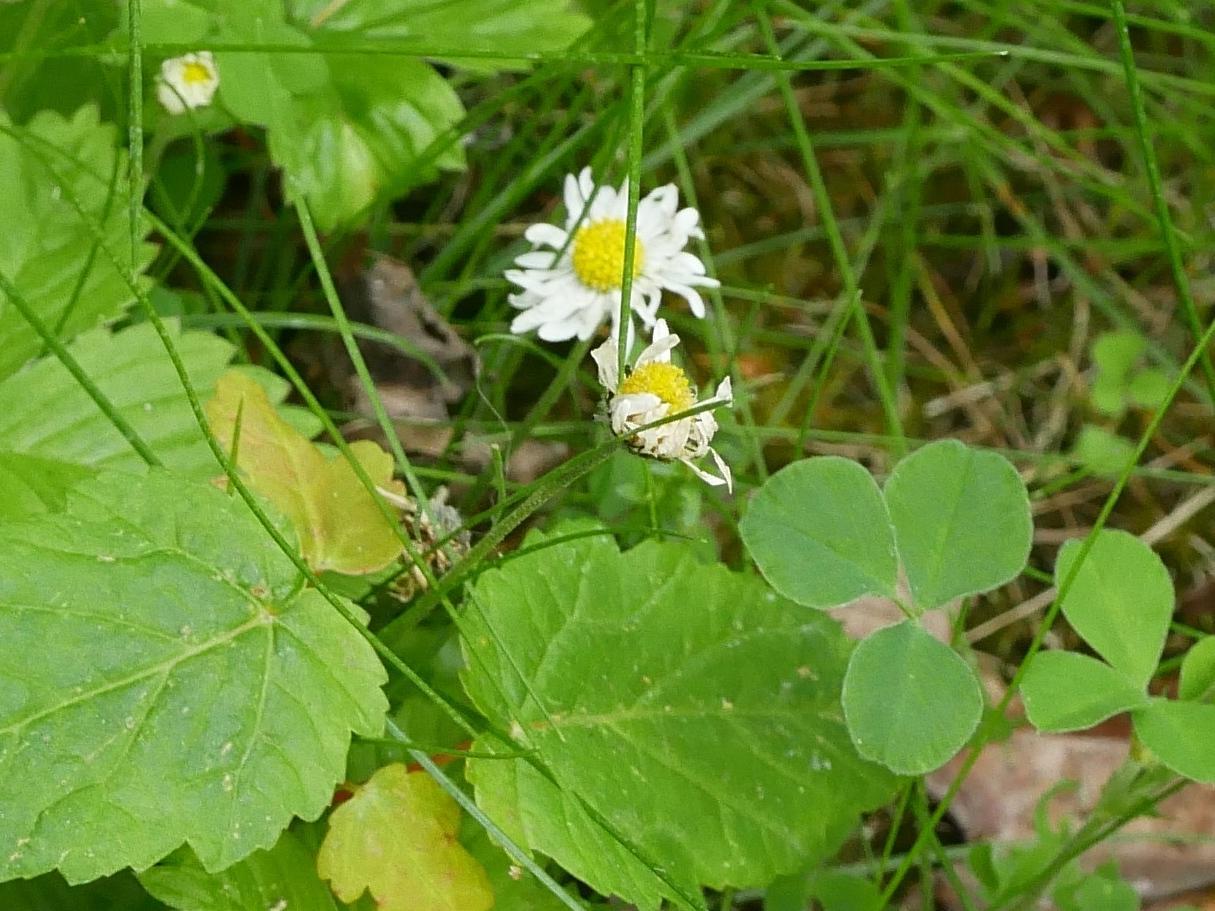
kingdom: Plantae
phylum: Tracheophyta
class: Magnoliopsida
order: Asterales
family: Asteraceae
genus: Bellis
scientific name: Bellis perennis
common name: Lawndaisy
